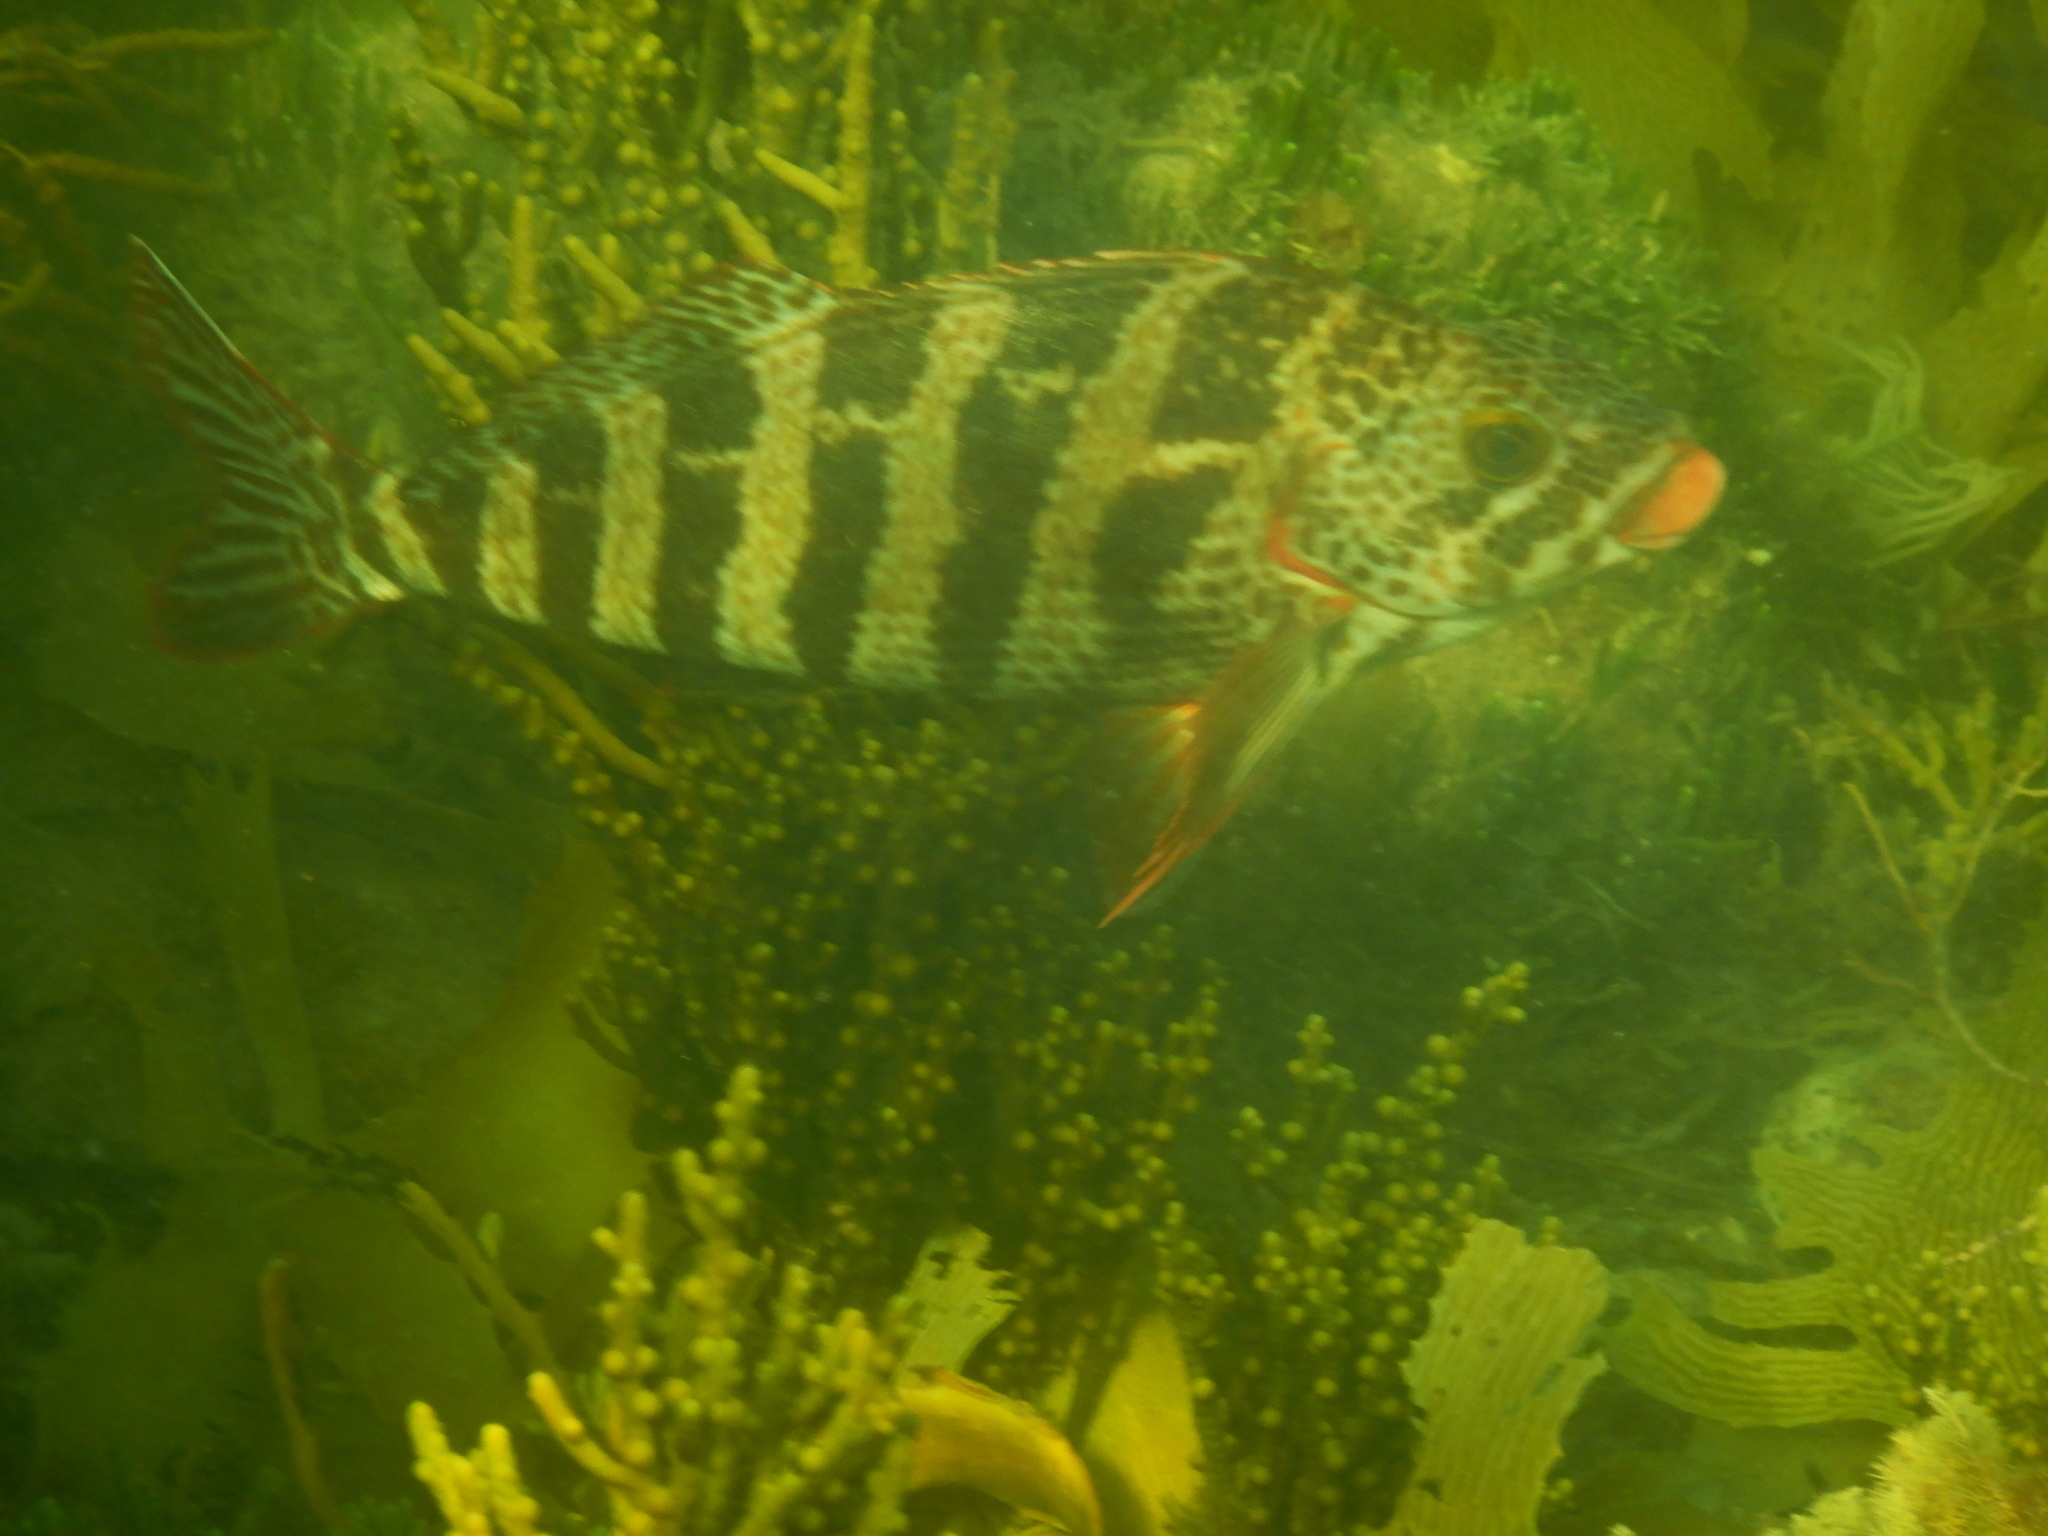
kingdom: Animalia
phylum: Chordata
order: Perciformes
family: Cheilodactylidae
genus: Cheilodactylus
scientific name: Cheilodactylus rubrolabiatus
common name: Redlip morwong
